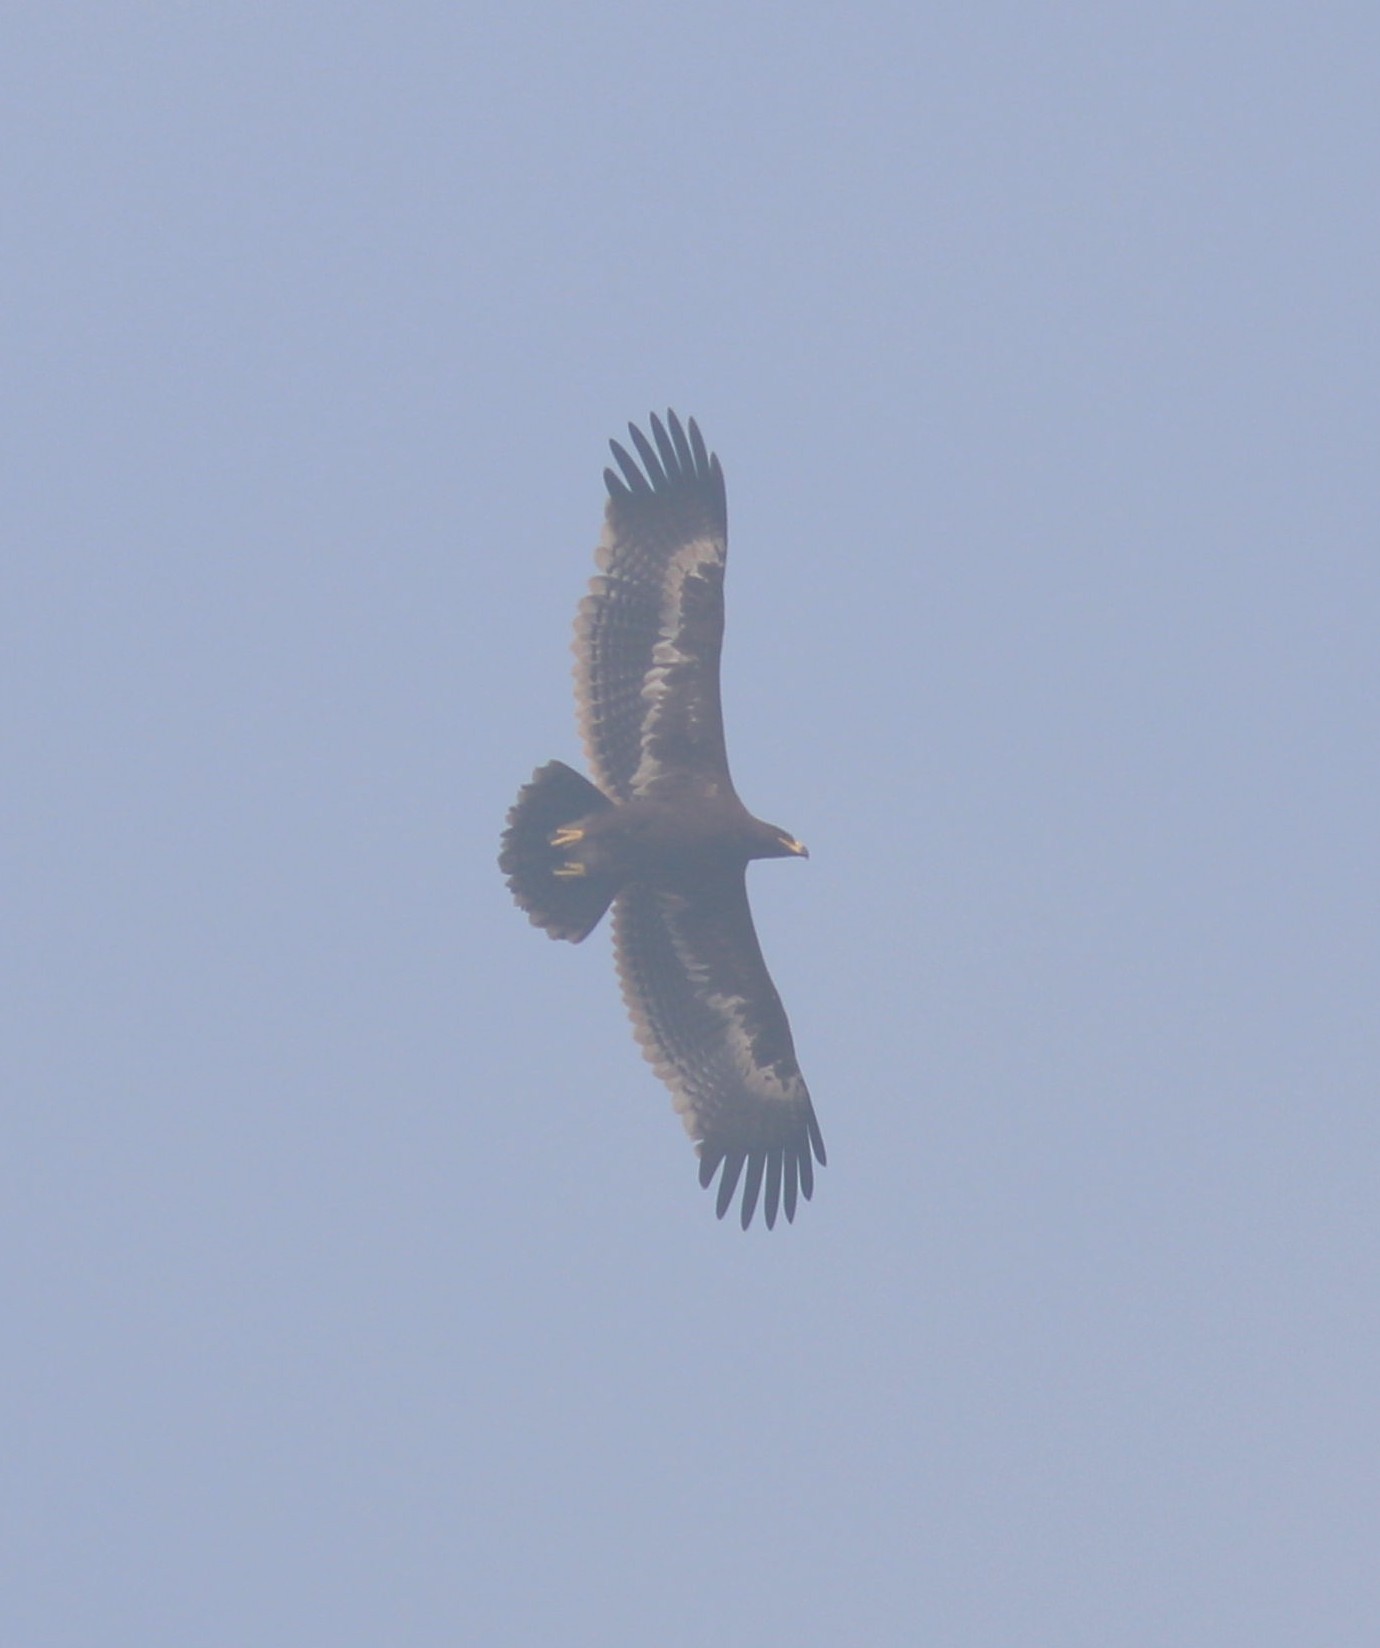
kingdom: Animalia
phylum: Chordata
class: Aves
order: Accipitriformes
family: Accipitridae
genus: Aquila
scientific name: Aquila nipalensis
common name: Steppe eagle
